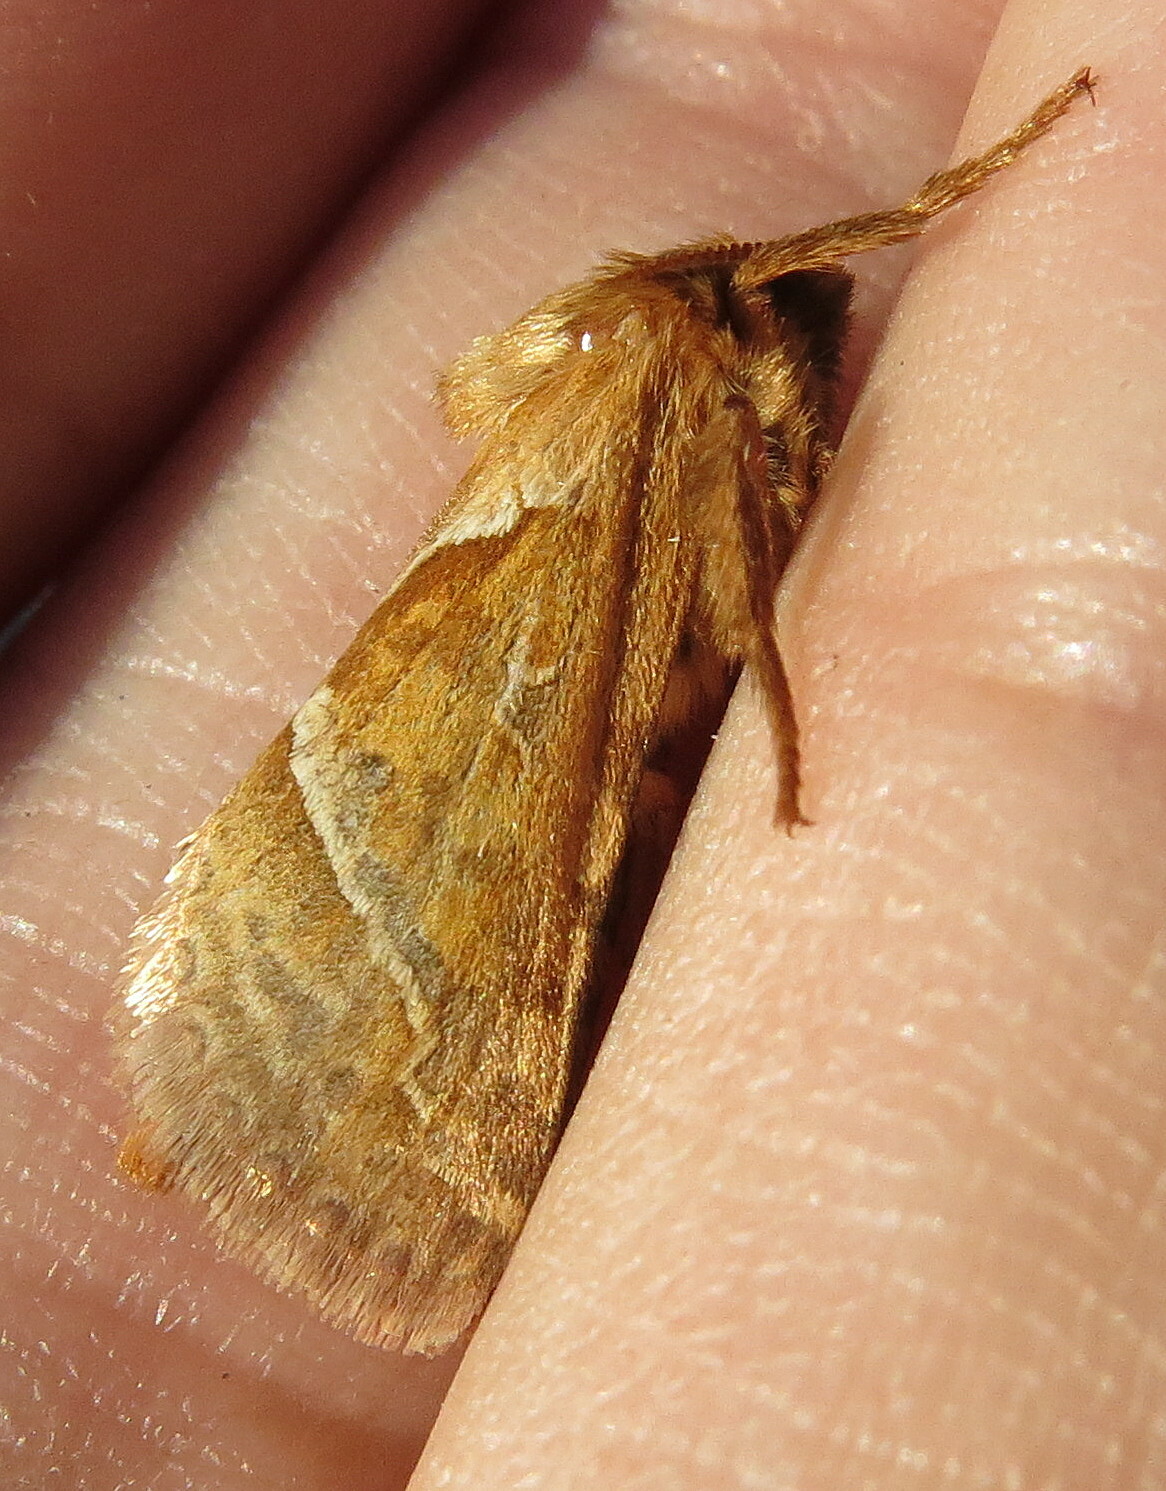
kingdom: Animalia
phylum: Arthropoda
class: Insecta
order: Lepidoptera
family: Hepialidae
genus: Triodia
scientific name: Triodia sylvina
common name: Orange swift
